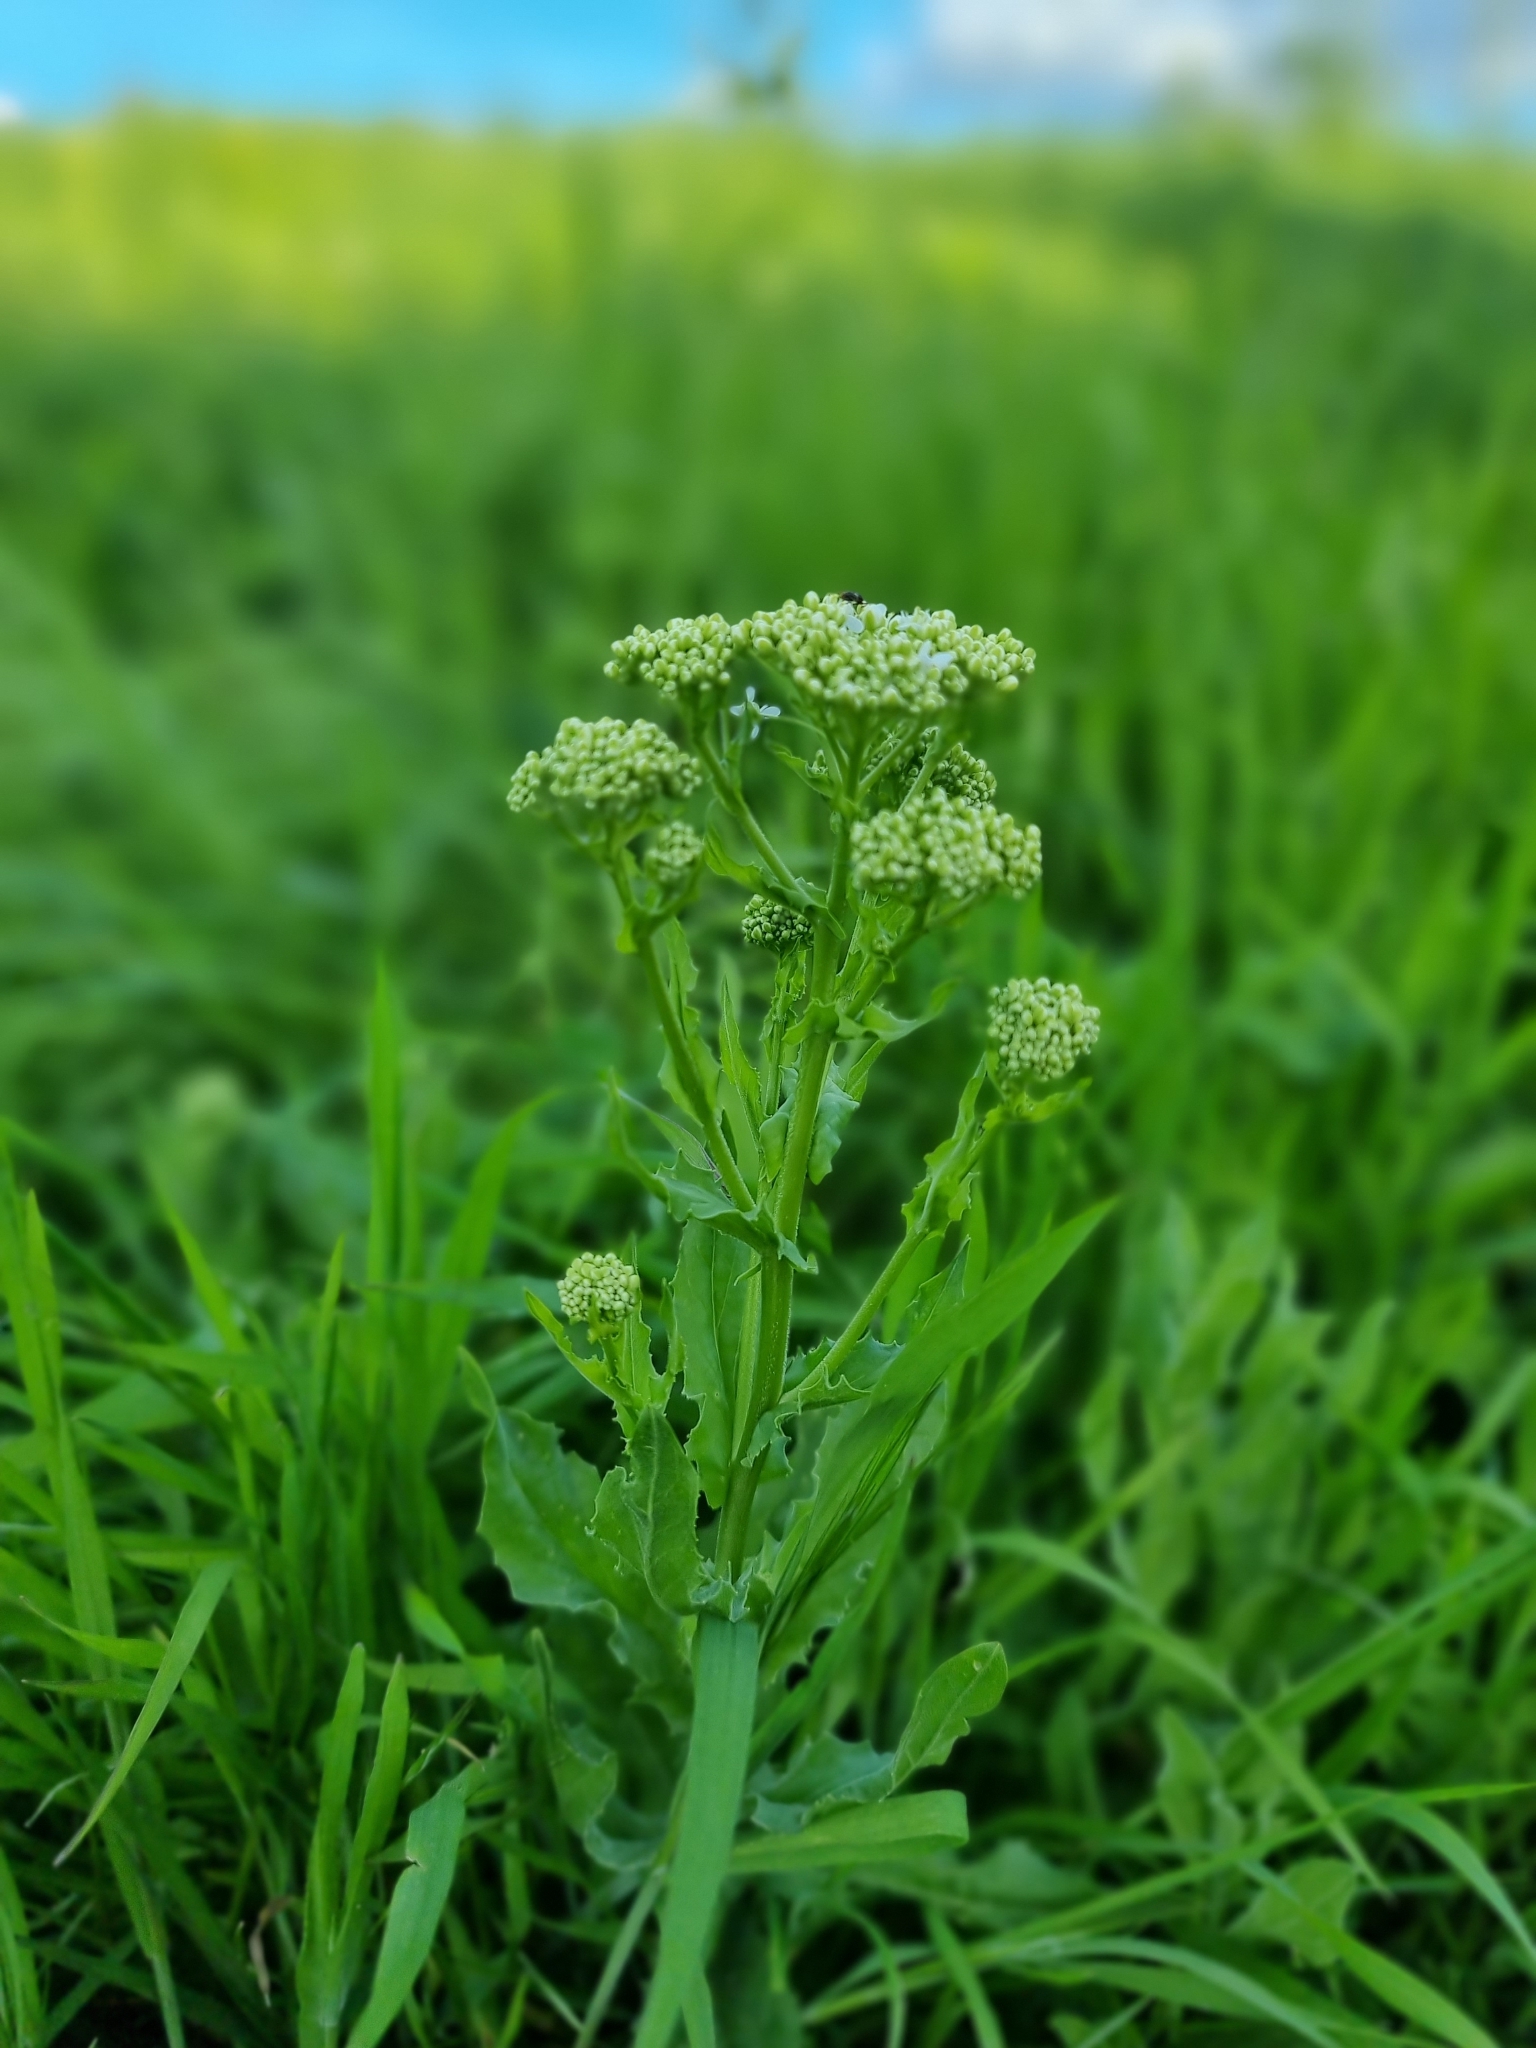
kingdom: Plantae
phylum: Tracheophyta
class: Magnoliopsida
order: Brassicales
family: Brassicaceae
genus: Lepidium
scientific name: Lepidium draba
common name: Hoary cress
